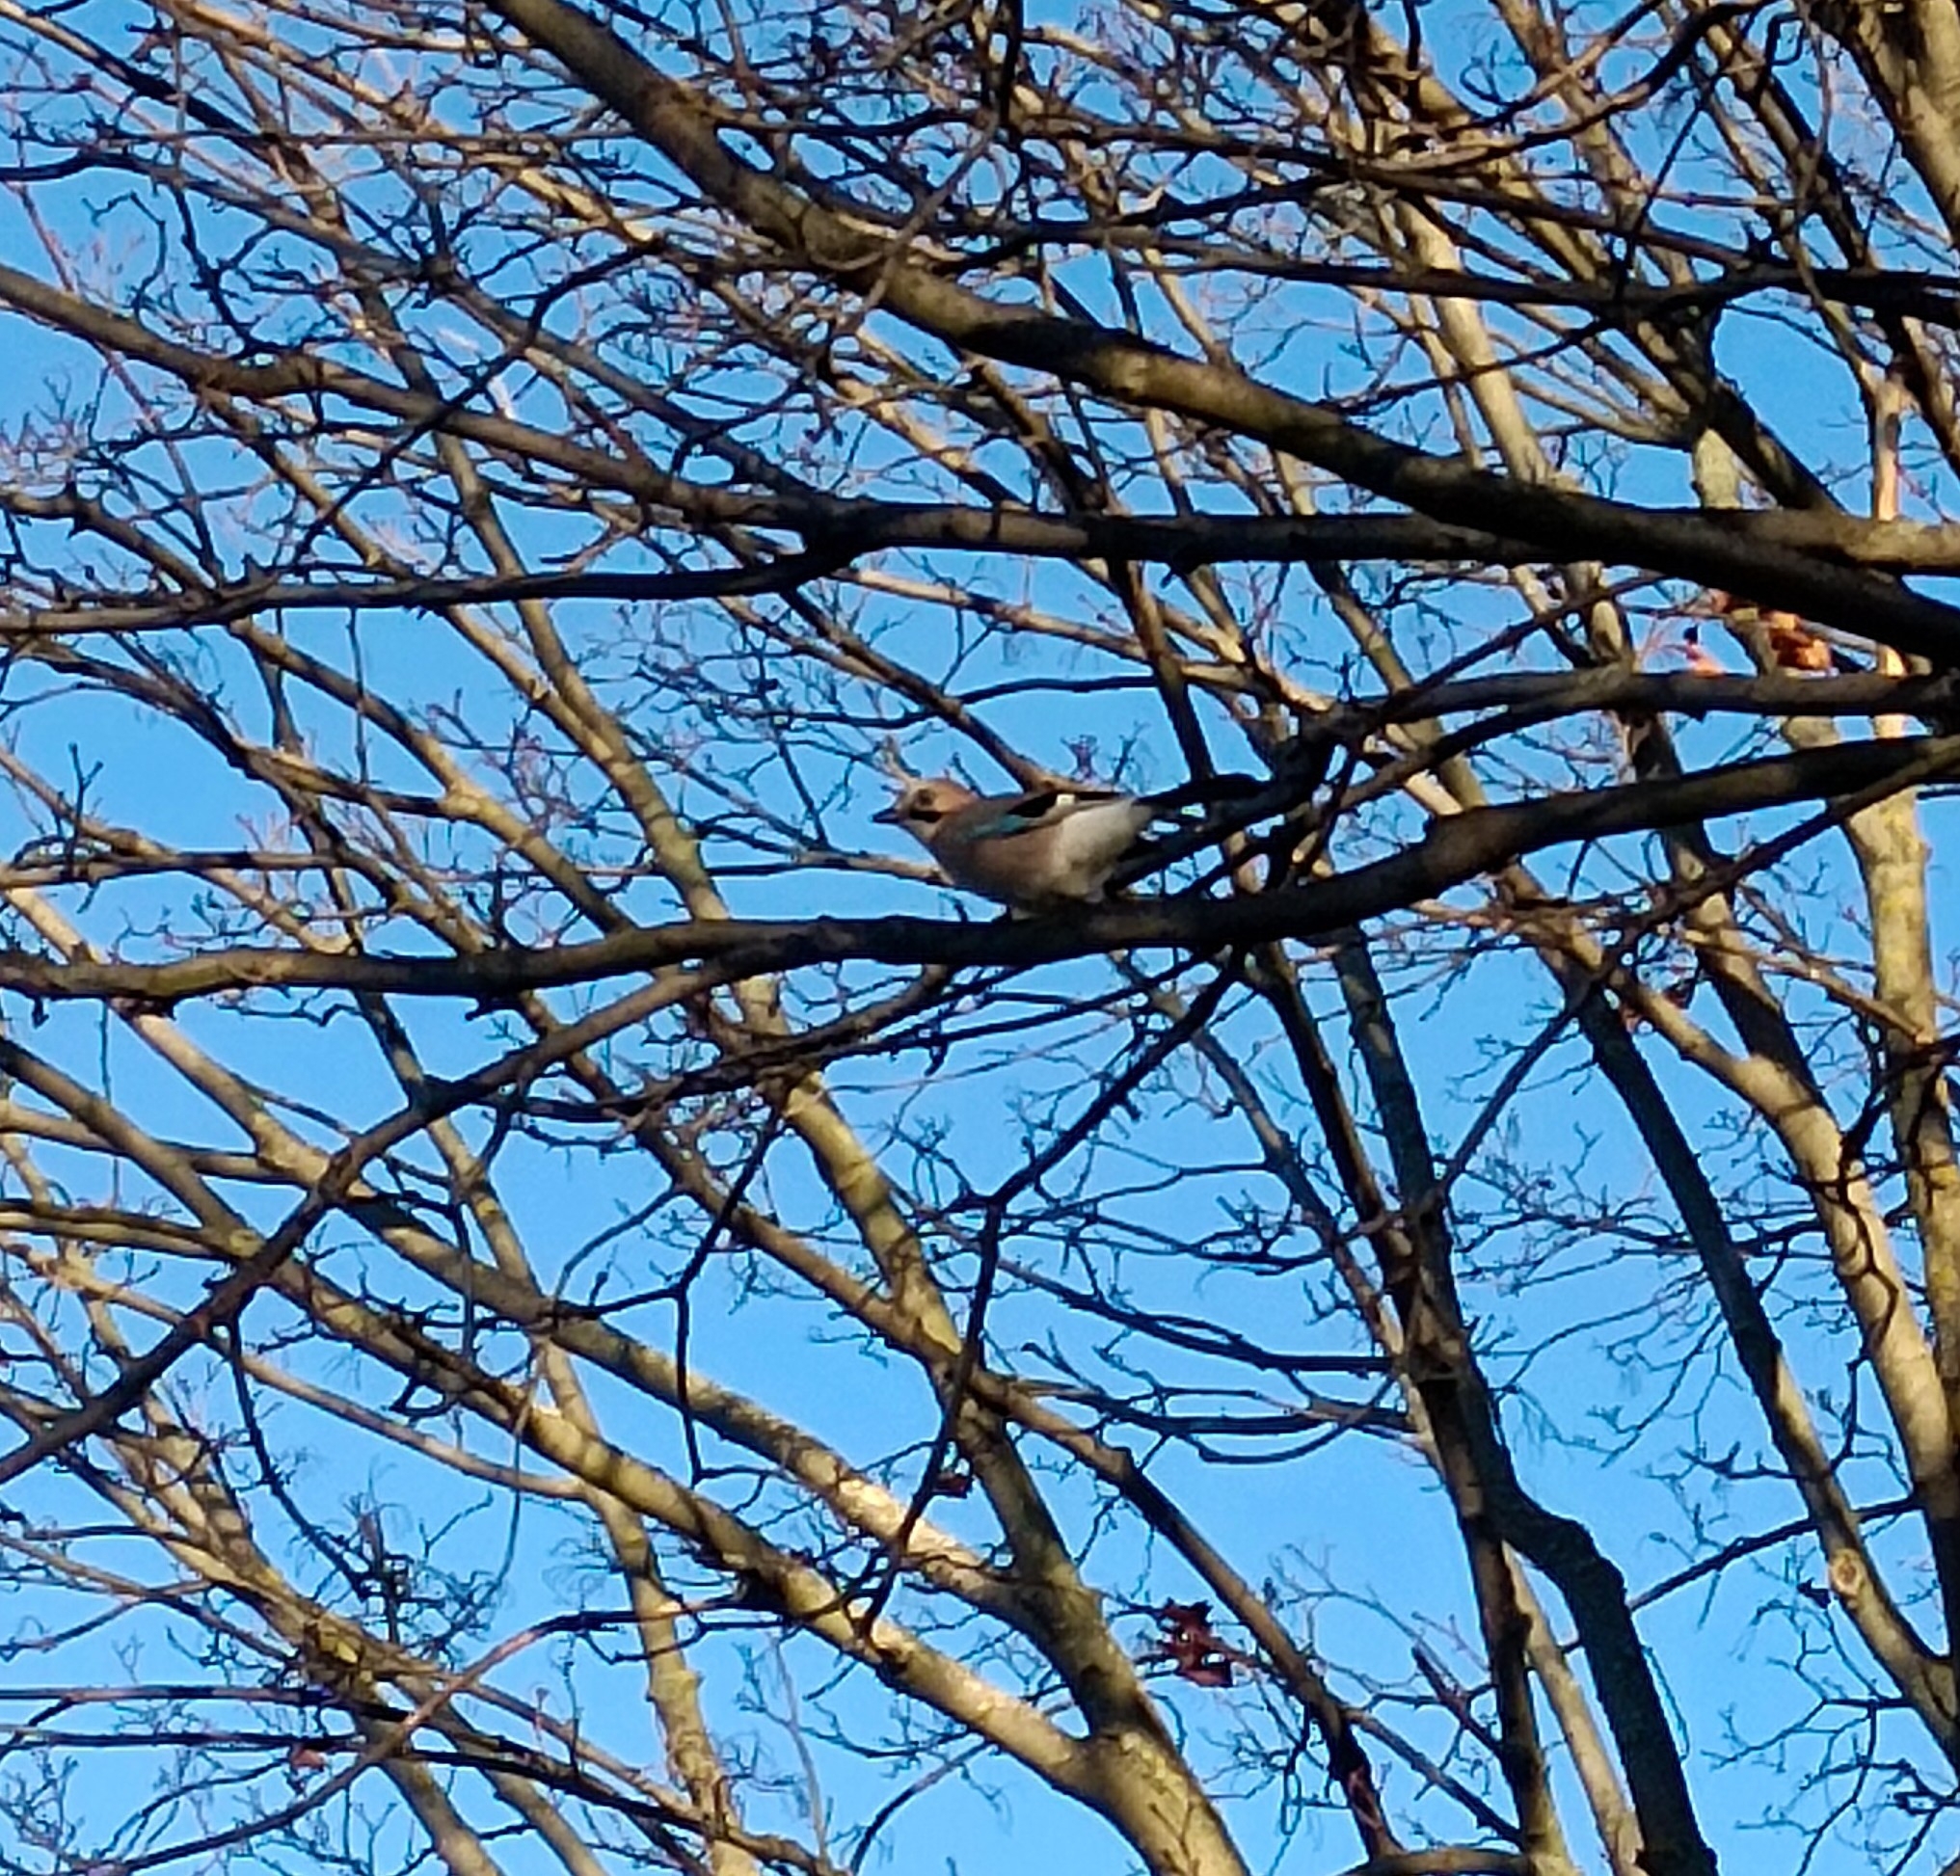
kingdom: Animalia
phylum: Chordata
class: Aves
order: Passeriformes
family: Corvidae
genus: Garrulus
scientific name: Garrulus glandarius
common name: Eurasian jay
